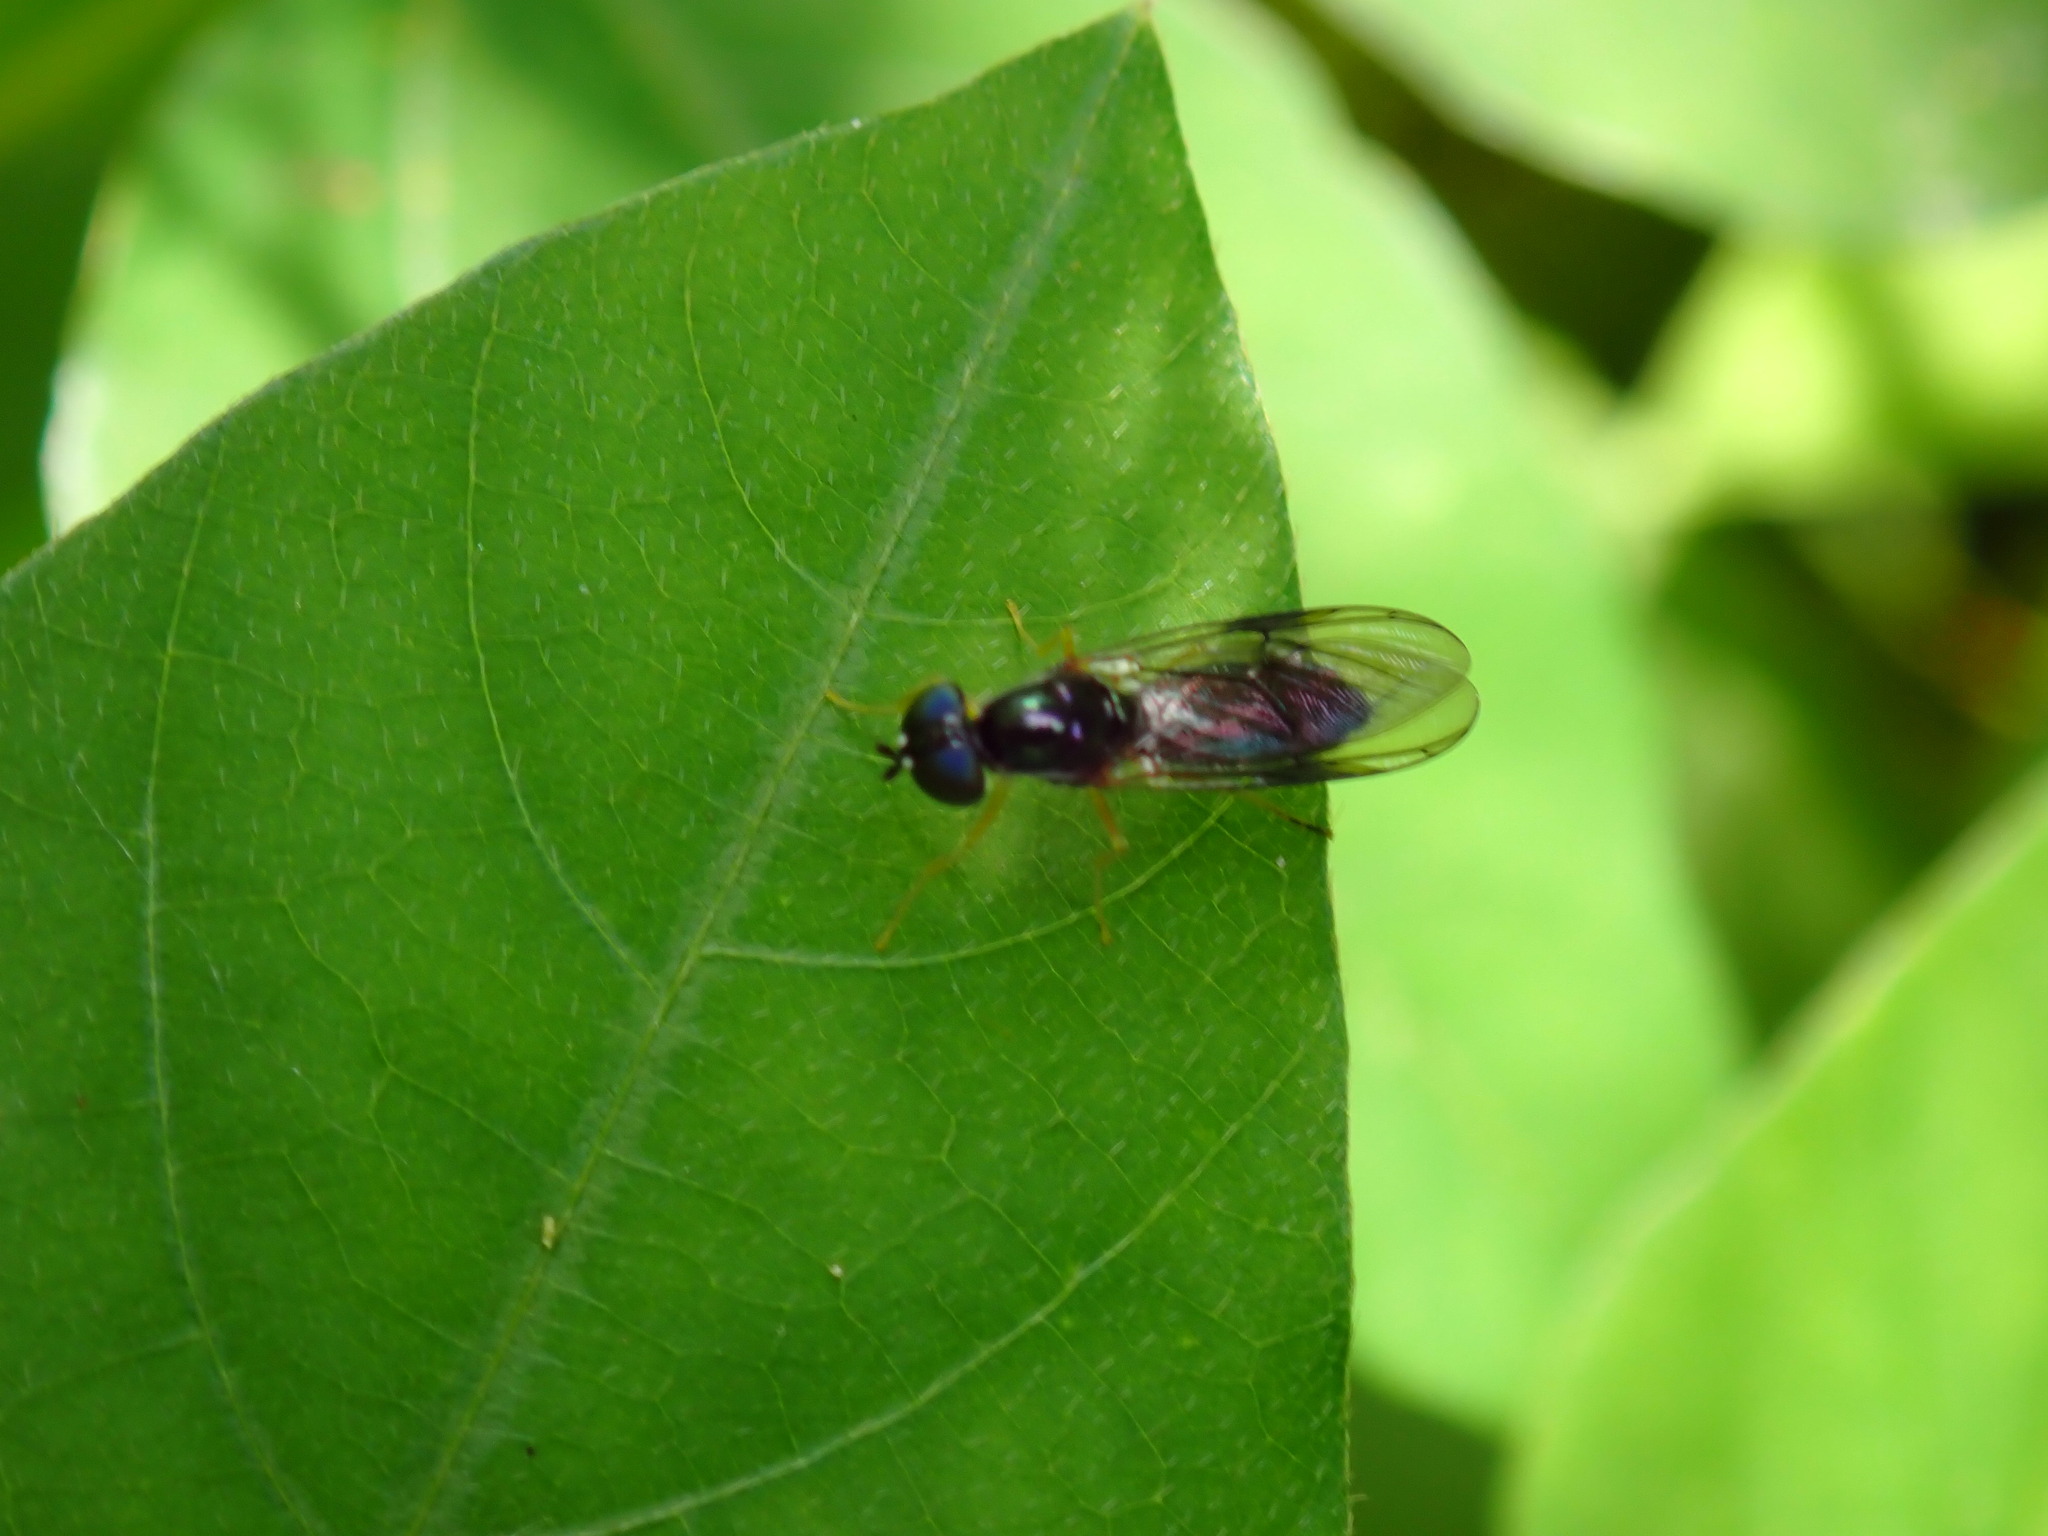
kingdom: Animalia
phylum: Arthropoda
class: Insecta
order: Diptera
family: Stratiomyidae
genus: Sargus
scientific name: Sargus decorus
